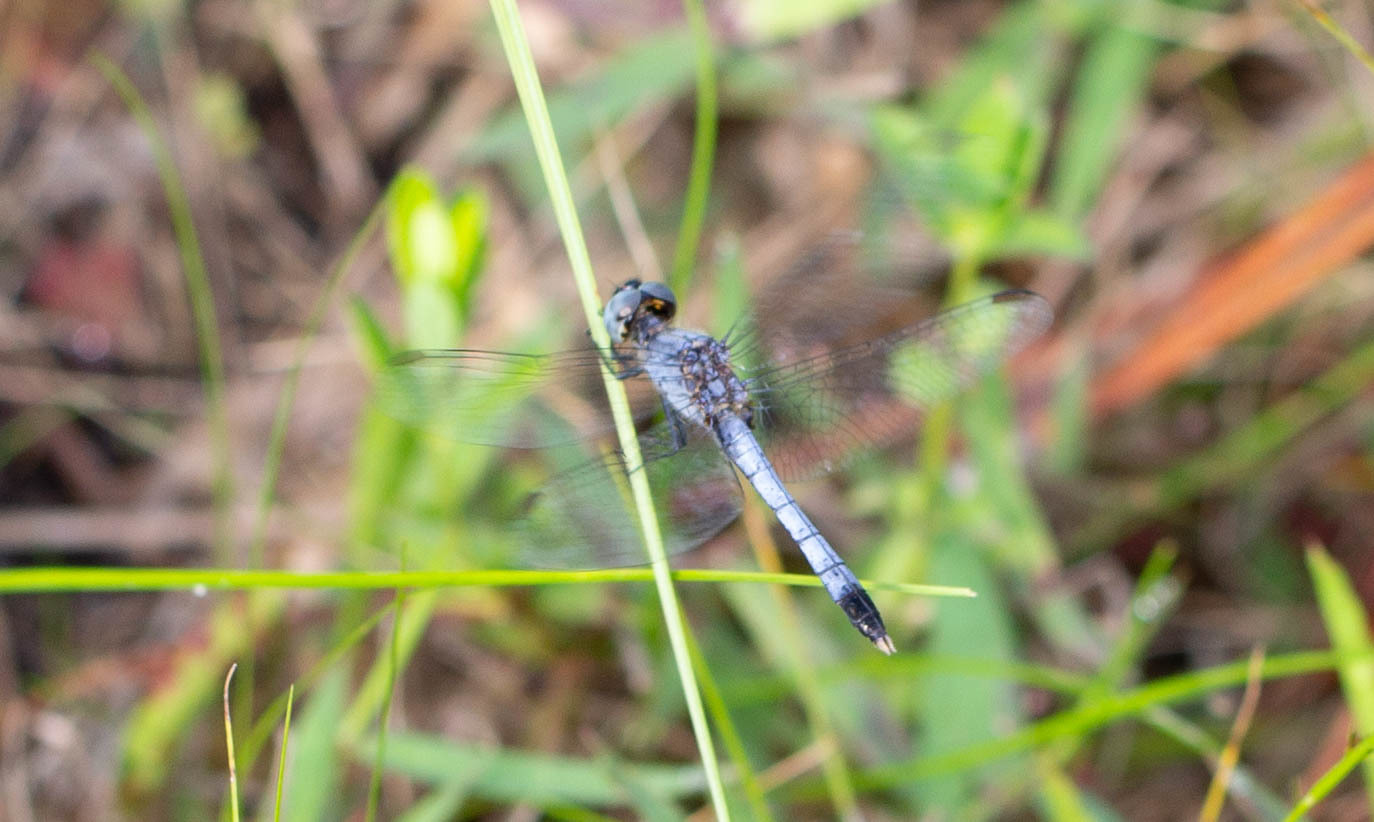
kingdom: Animalia
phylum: Arthropoda
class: Insecta
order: Odonata
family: Libellulidae
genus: Erythrodiplax
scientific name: Erythrodiplax minuscula
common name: Little blue dragonlet
